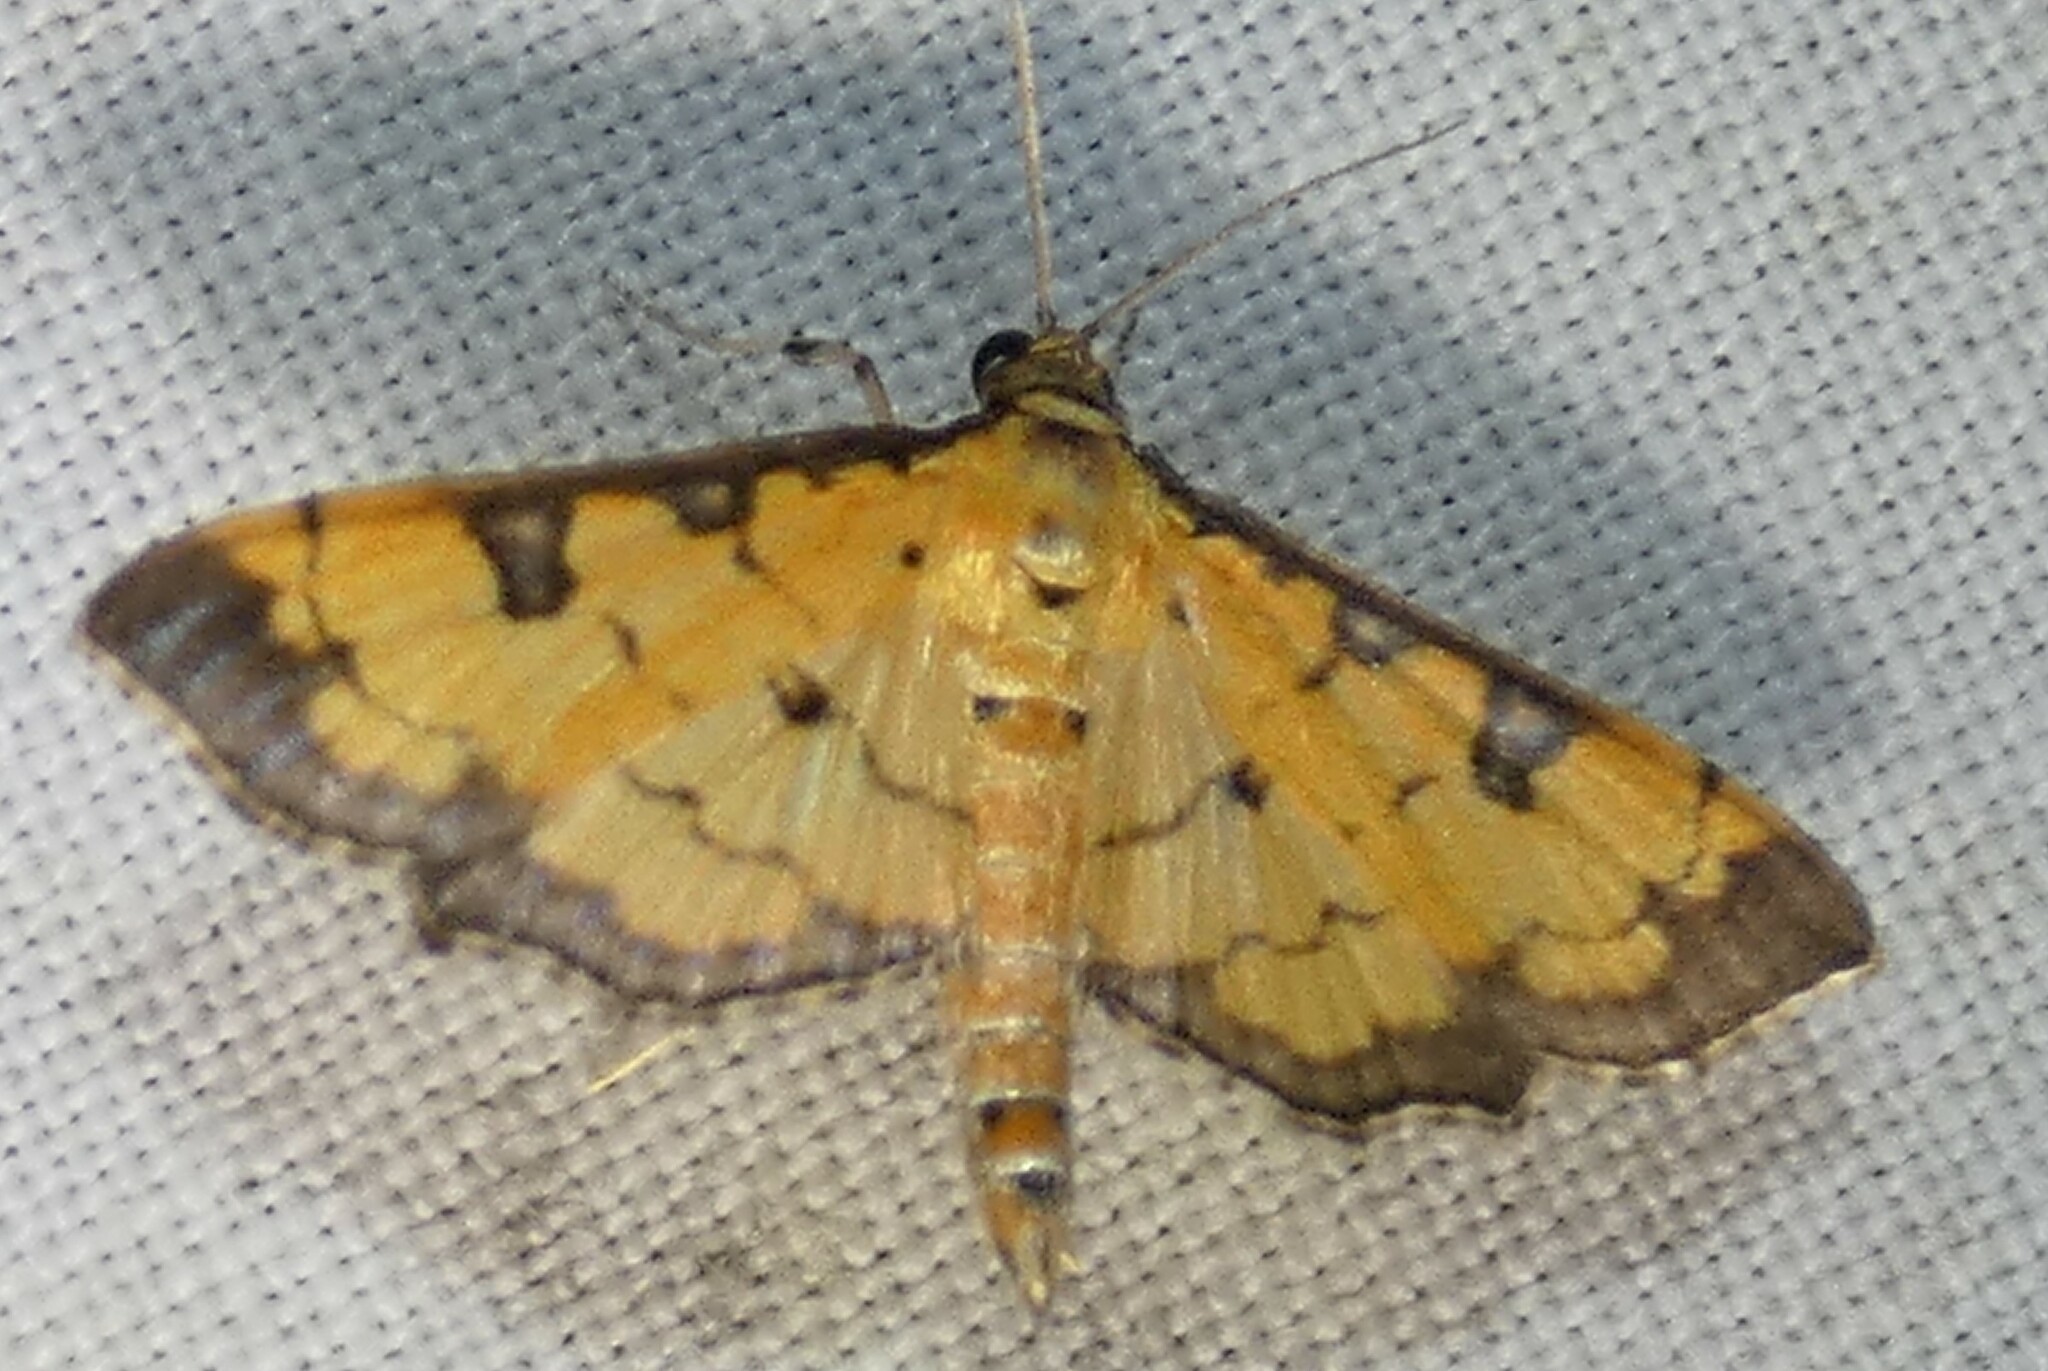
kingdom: Animalia
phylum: Arthropoda
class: Insecta
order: Lepidoptera
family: Crambidae
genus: Ategumia
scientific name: Ategumia ebulealis
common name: Moth
